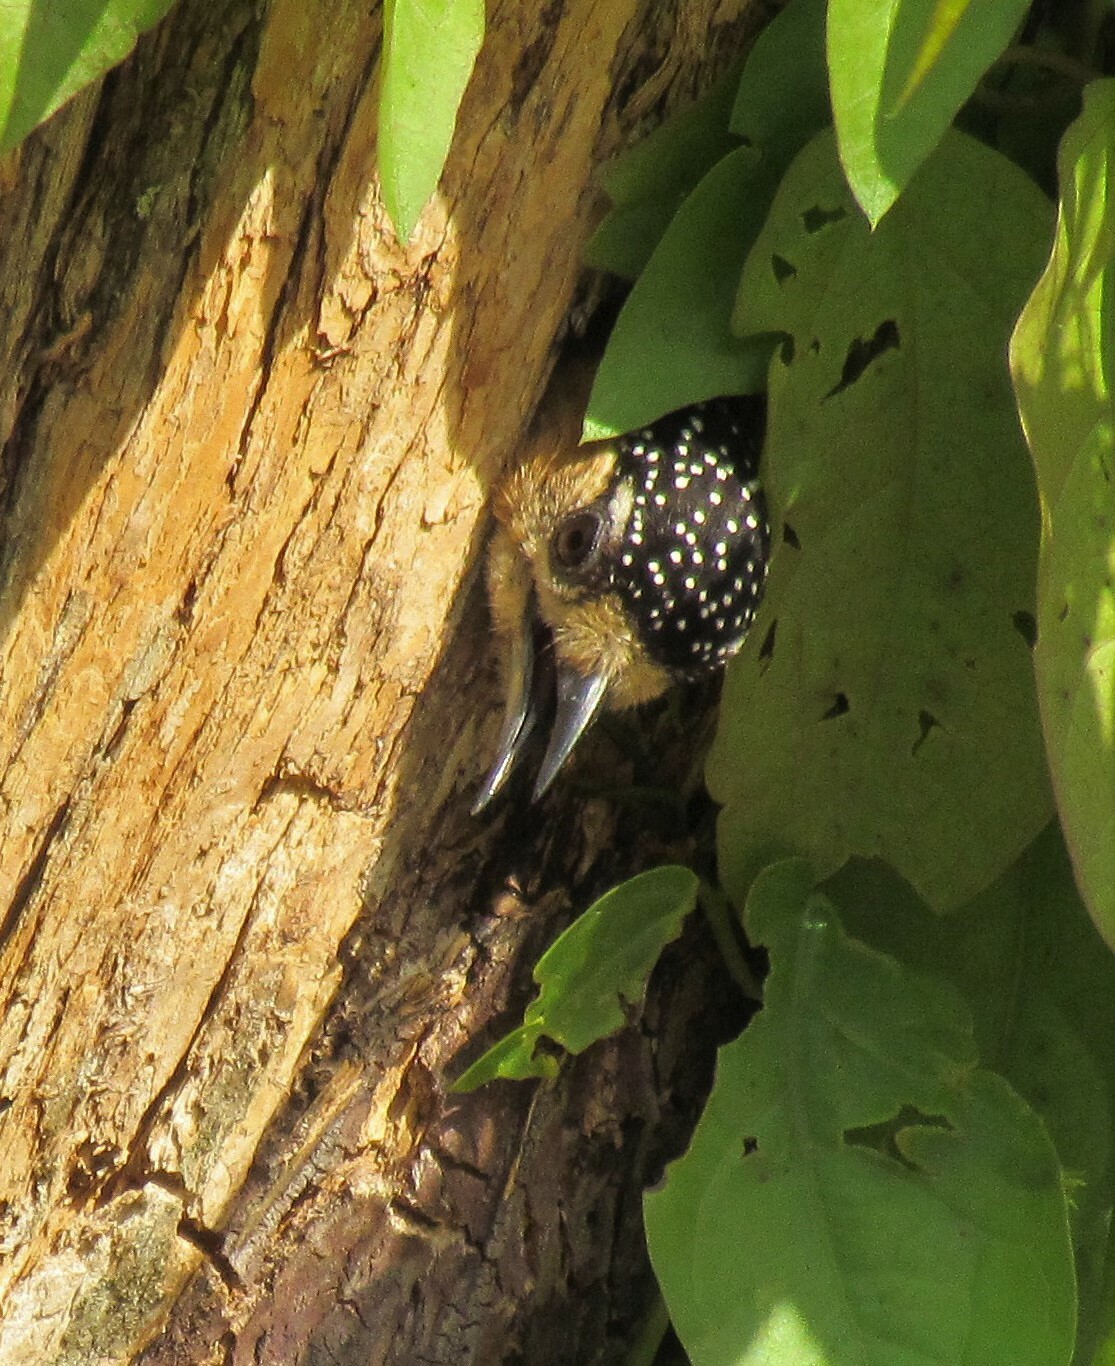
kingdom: Animalia
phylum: Chordata
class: Aves
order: Piciformes
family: Picidae
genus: Picumnus
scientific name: Picumnus temminckii
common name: Ochre-collared piculet
